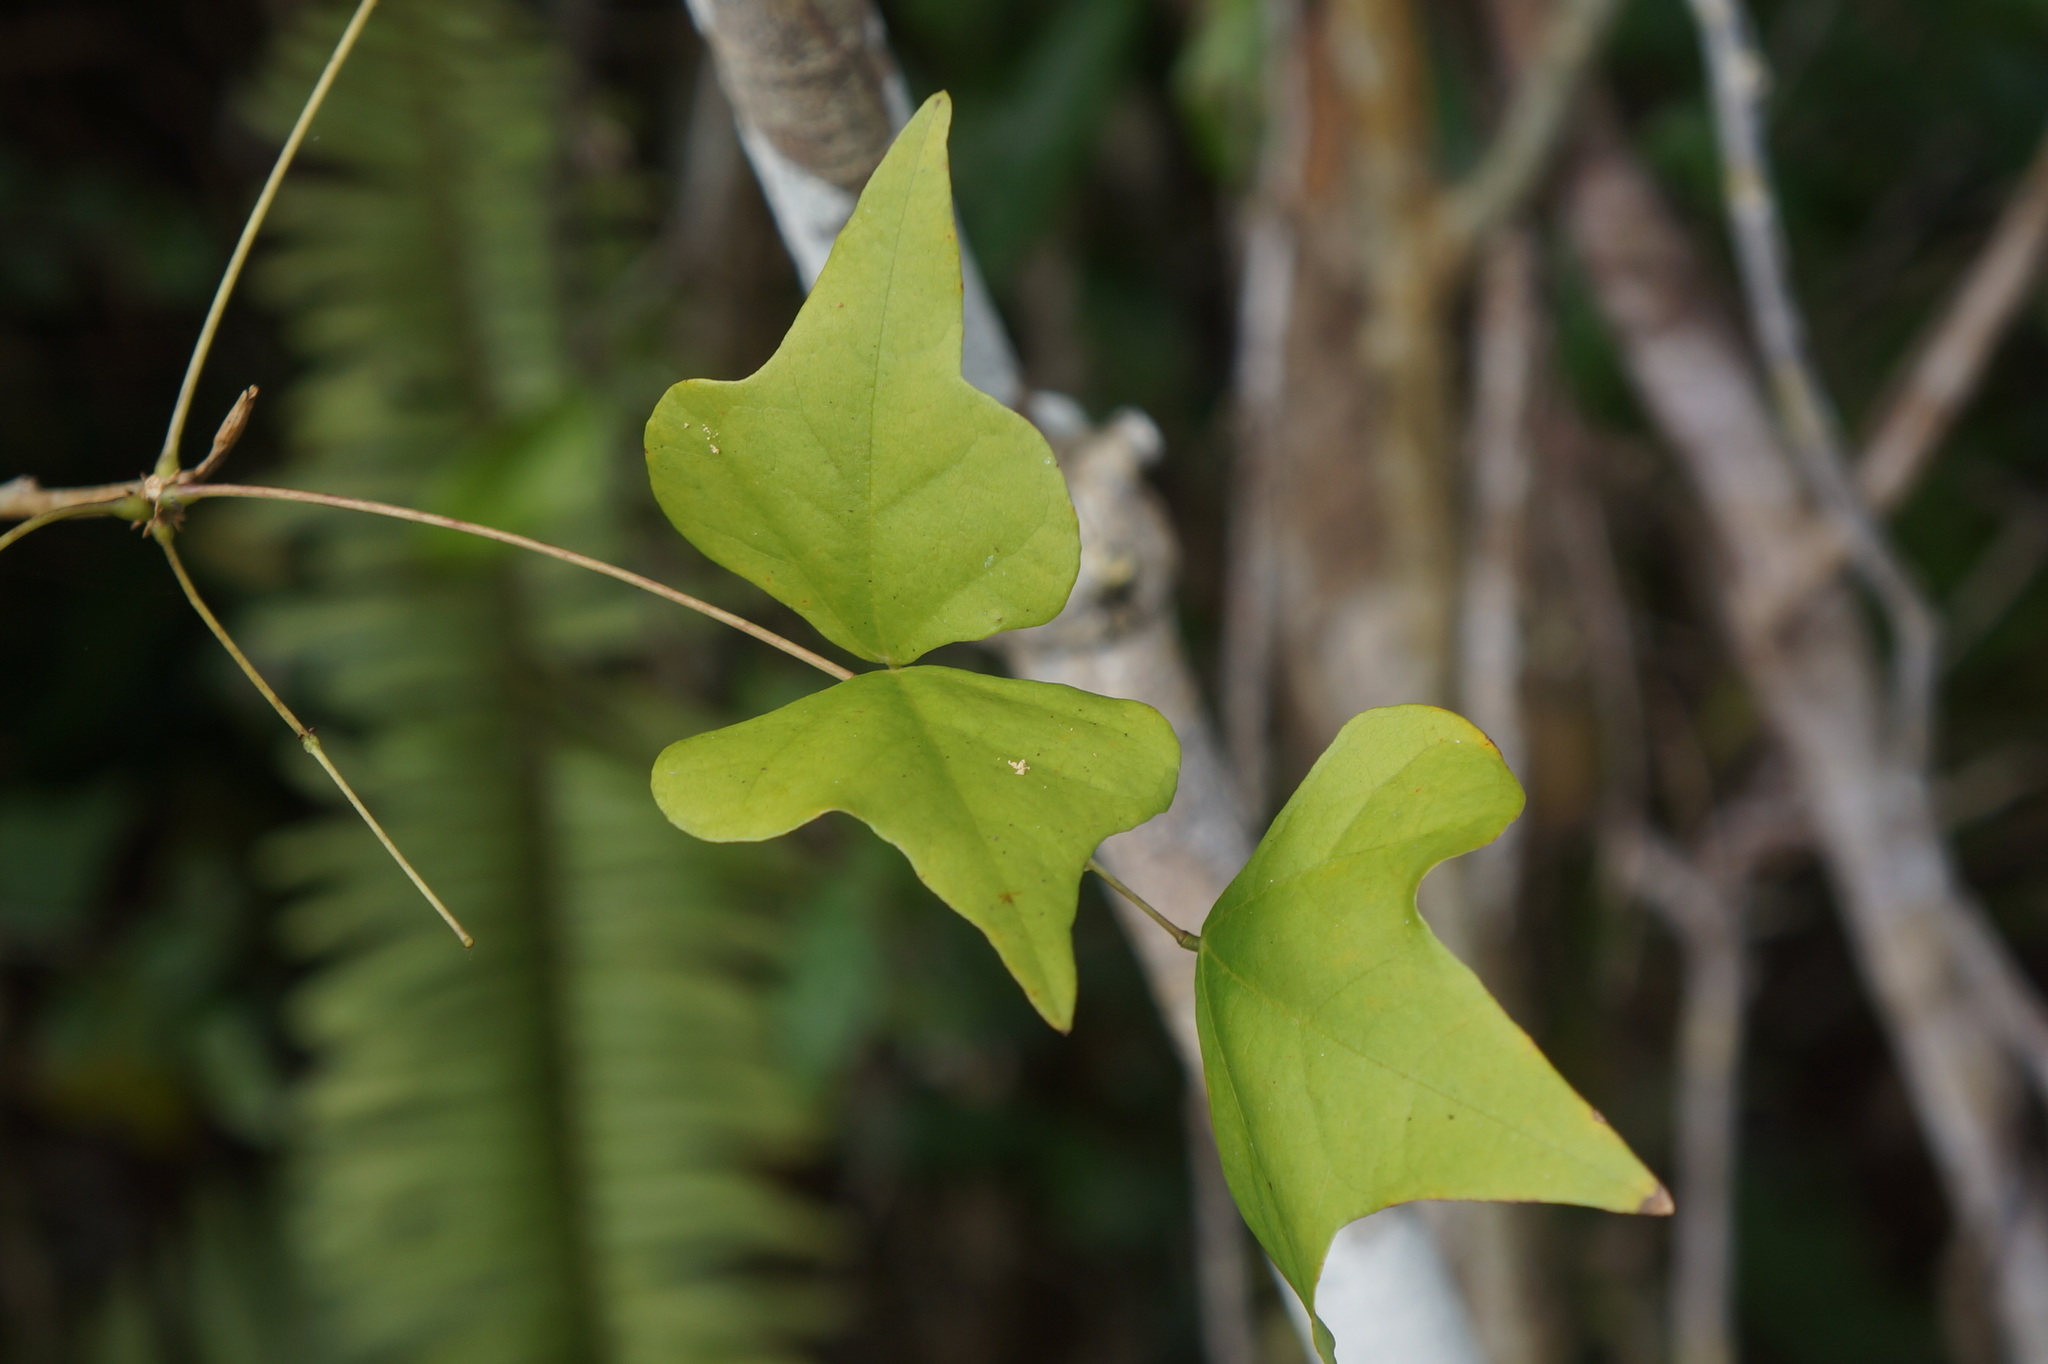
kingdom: Plantae
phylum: Tracheophyta
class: Magnoliopsida
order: Fabales
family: Fabaceae
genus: Erythrina
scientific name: Erythrina herbacea
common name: Coral-bean
